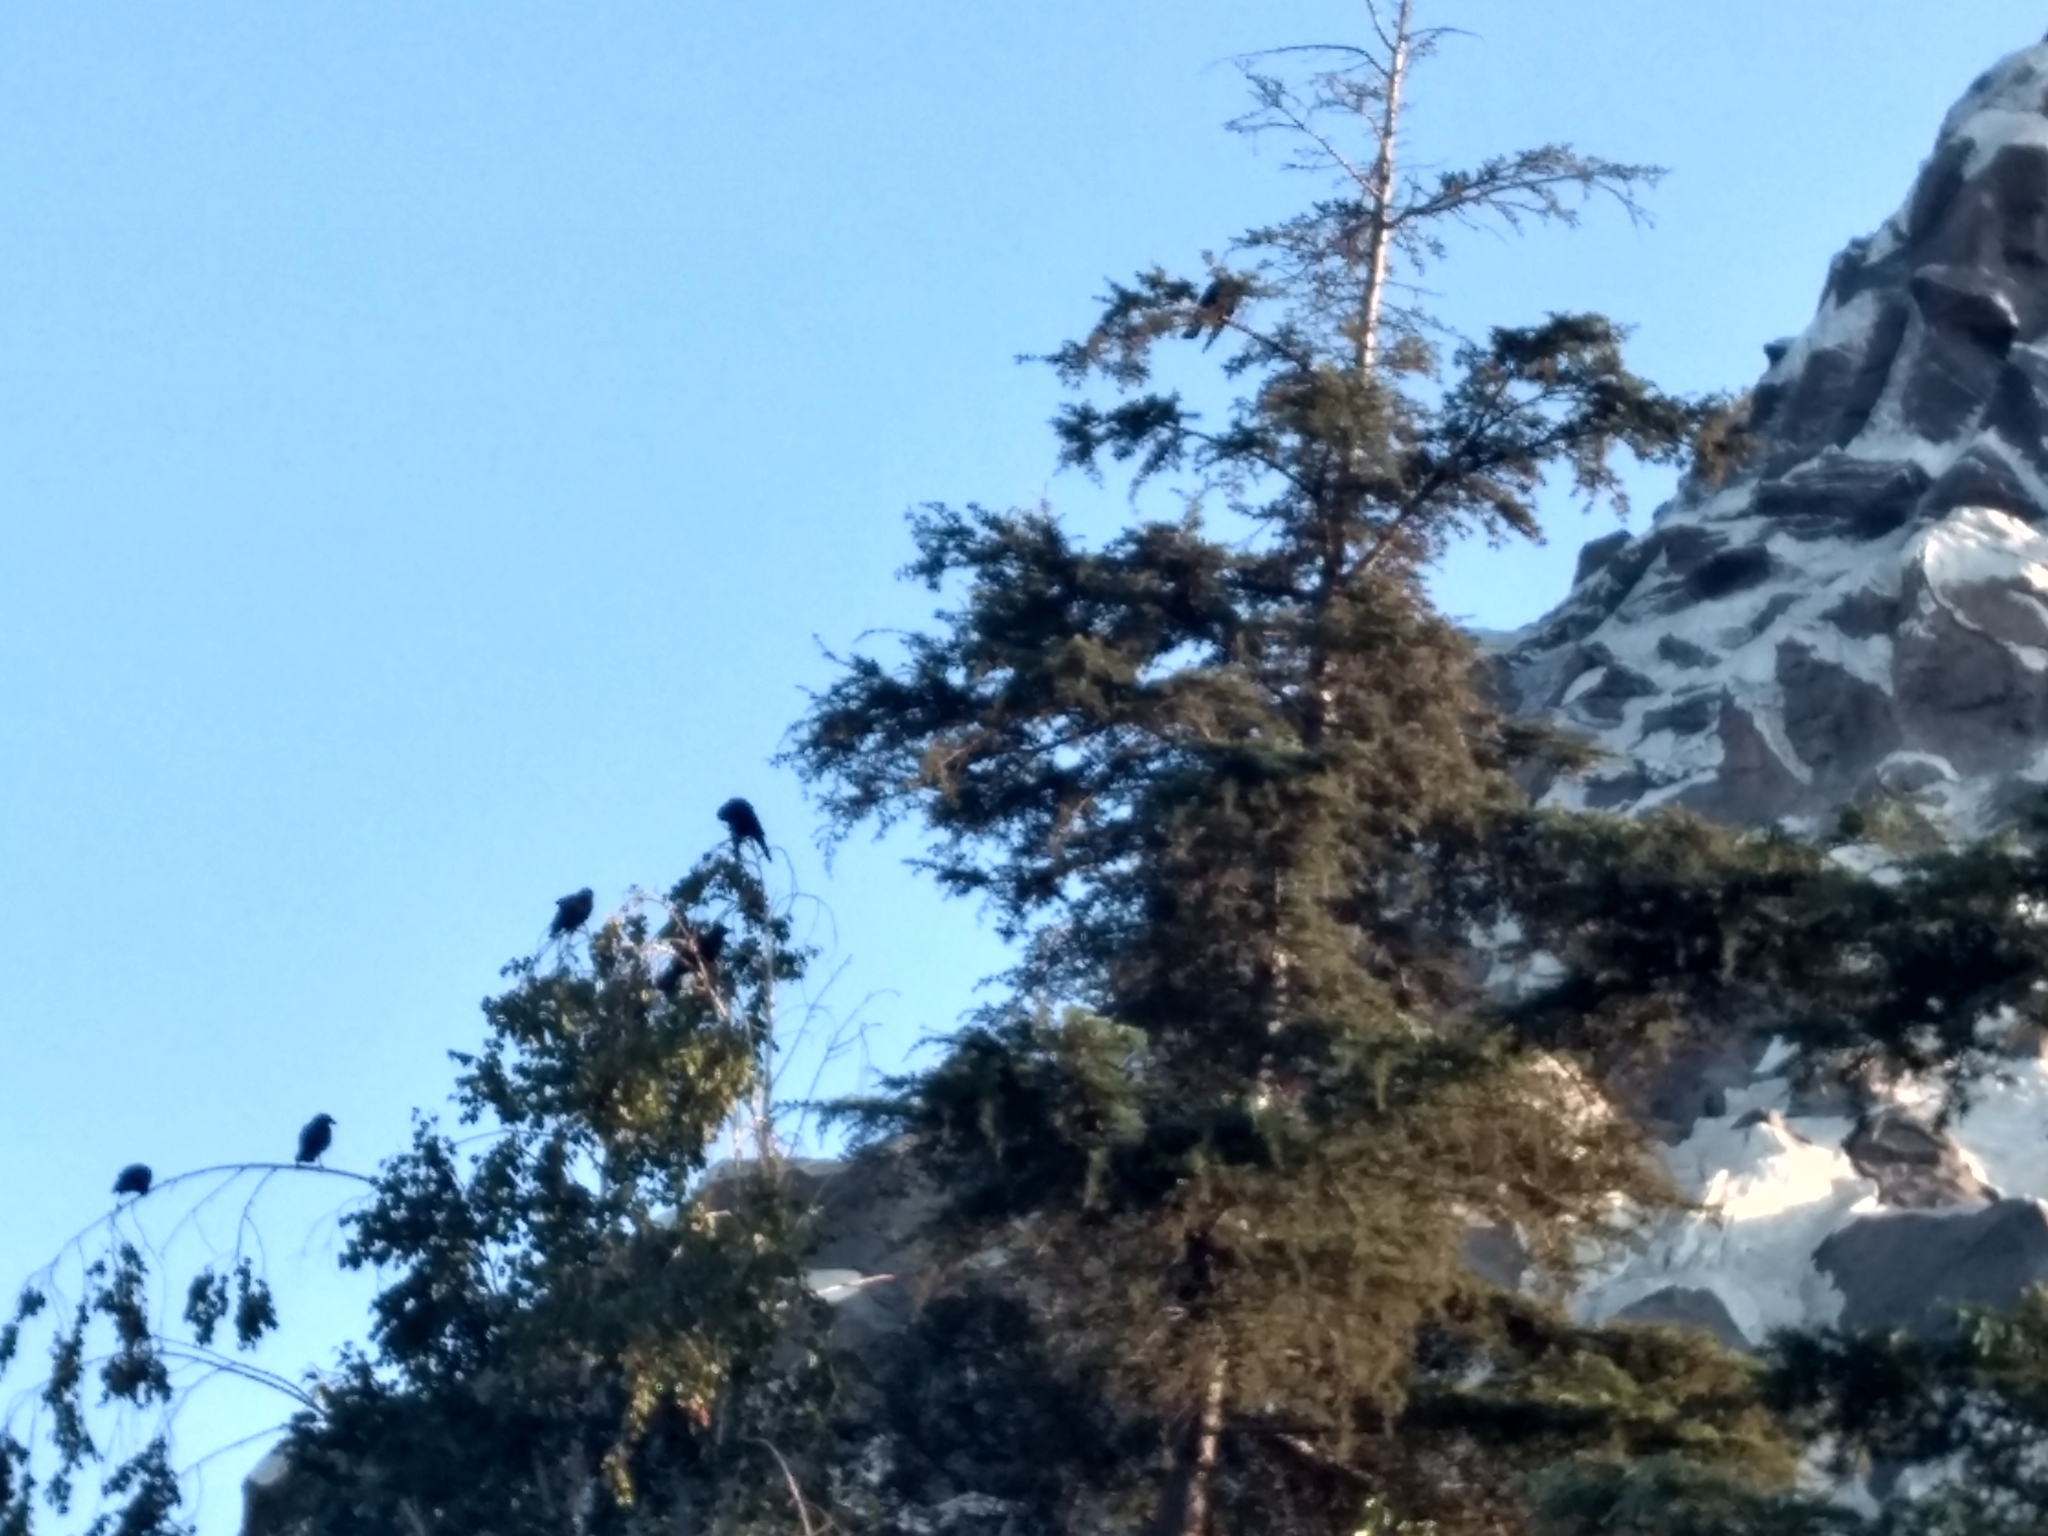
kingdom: Animalia
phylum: Chordata
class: Aves
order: Passeriformes
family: Corvidae
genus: Corvus
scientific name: Corvus brachyrhynchos
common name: American crow
